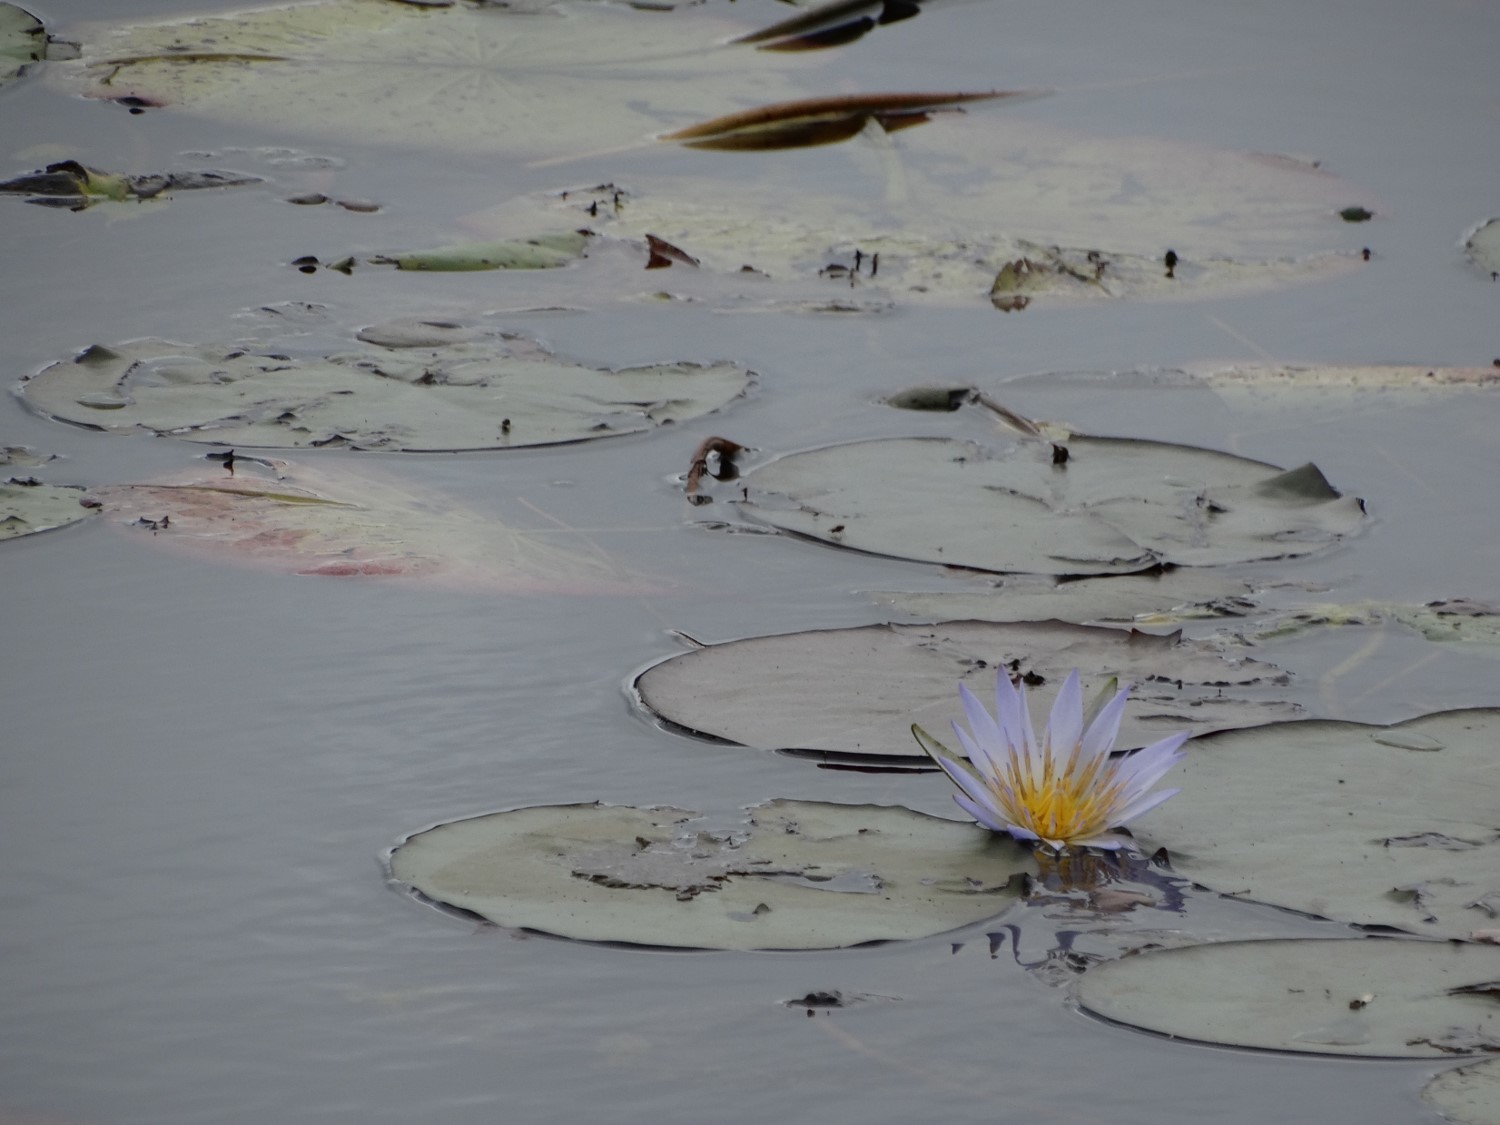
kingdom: Plantae
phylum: Tracheophyta
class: Magnoliopsida
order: Nymphaeales
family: Nymphaeaceae
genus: Nymphaea
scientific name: Nymphaea
